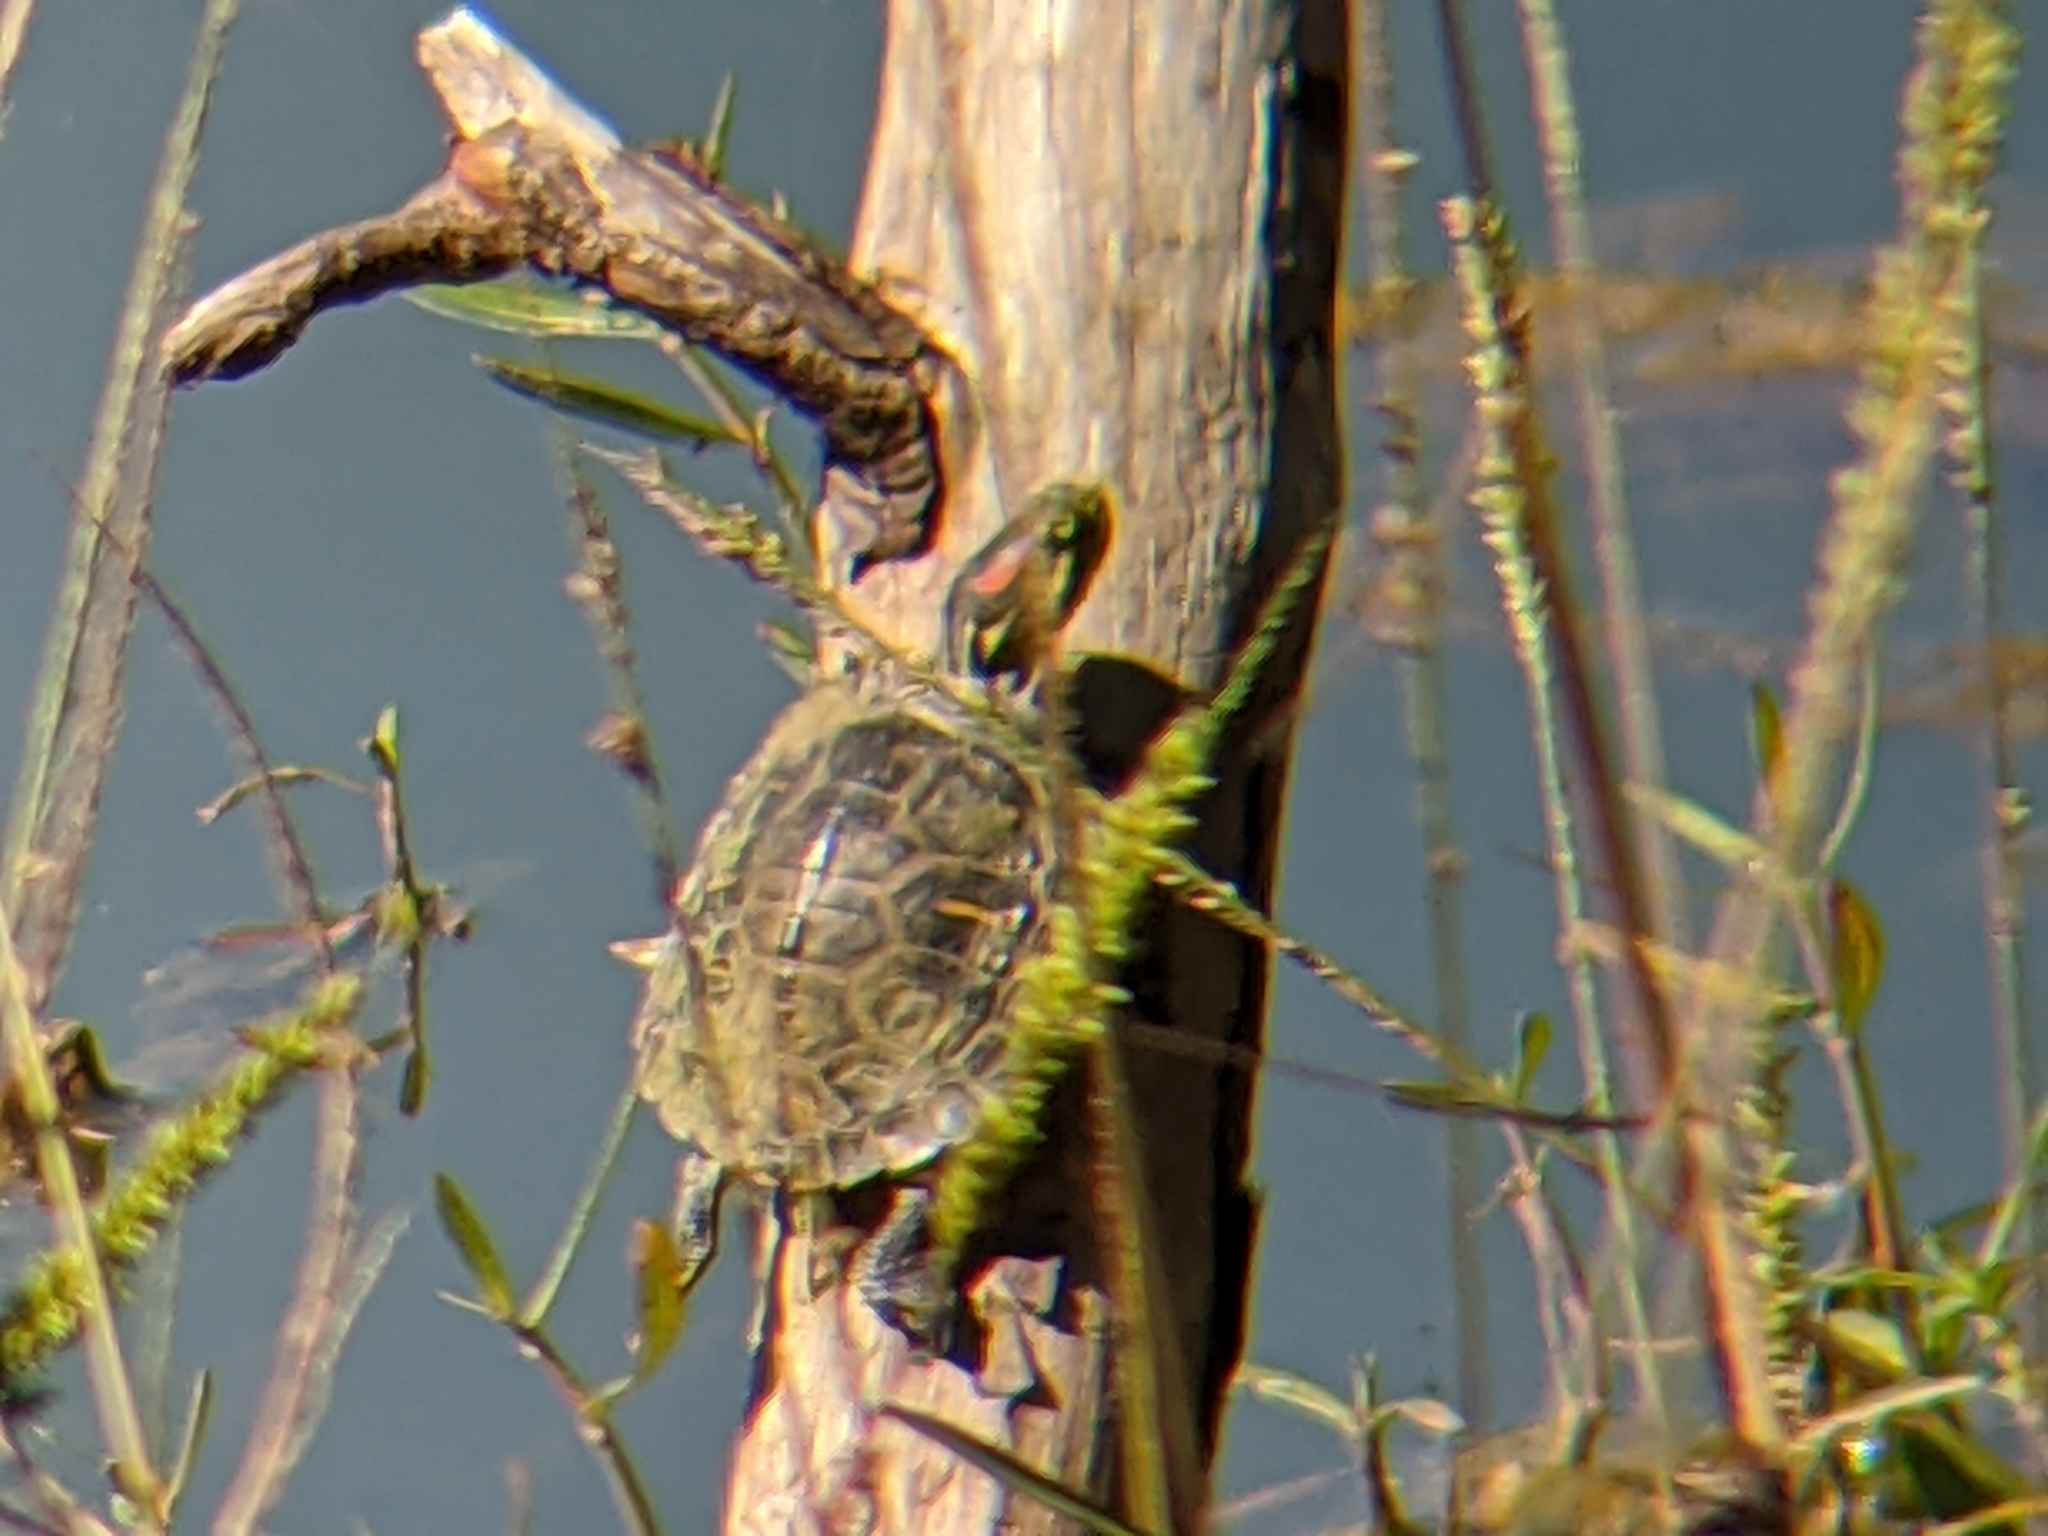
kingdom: Animalia
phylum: Chordata
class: Testudines
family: Emydidae
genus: Trachemys
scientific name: Trachemys scripta
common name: Slider
